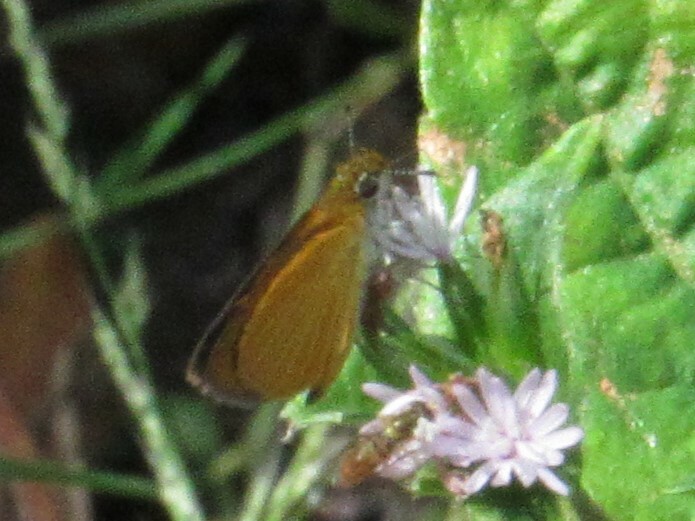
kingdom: Animalia
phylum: Arthropoda
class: Insecta
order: Lepidoptera
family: Hesperiidae
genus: Ancyloxypha
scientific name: Ancyloxypha numitor
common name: Least skipper
